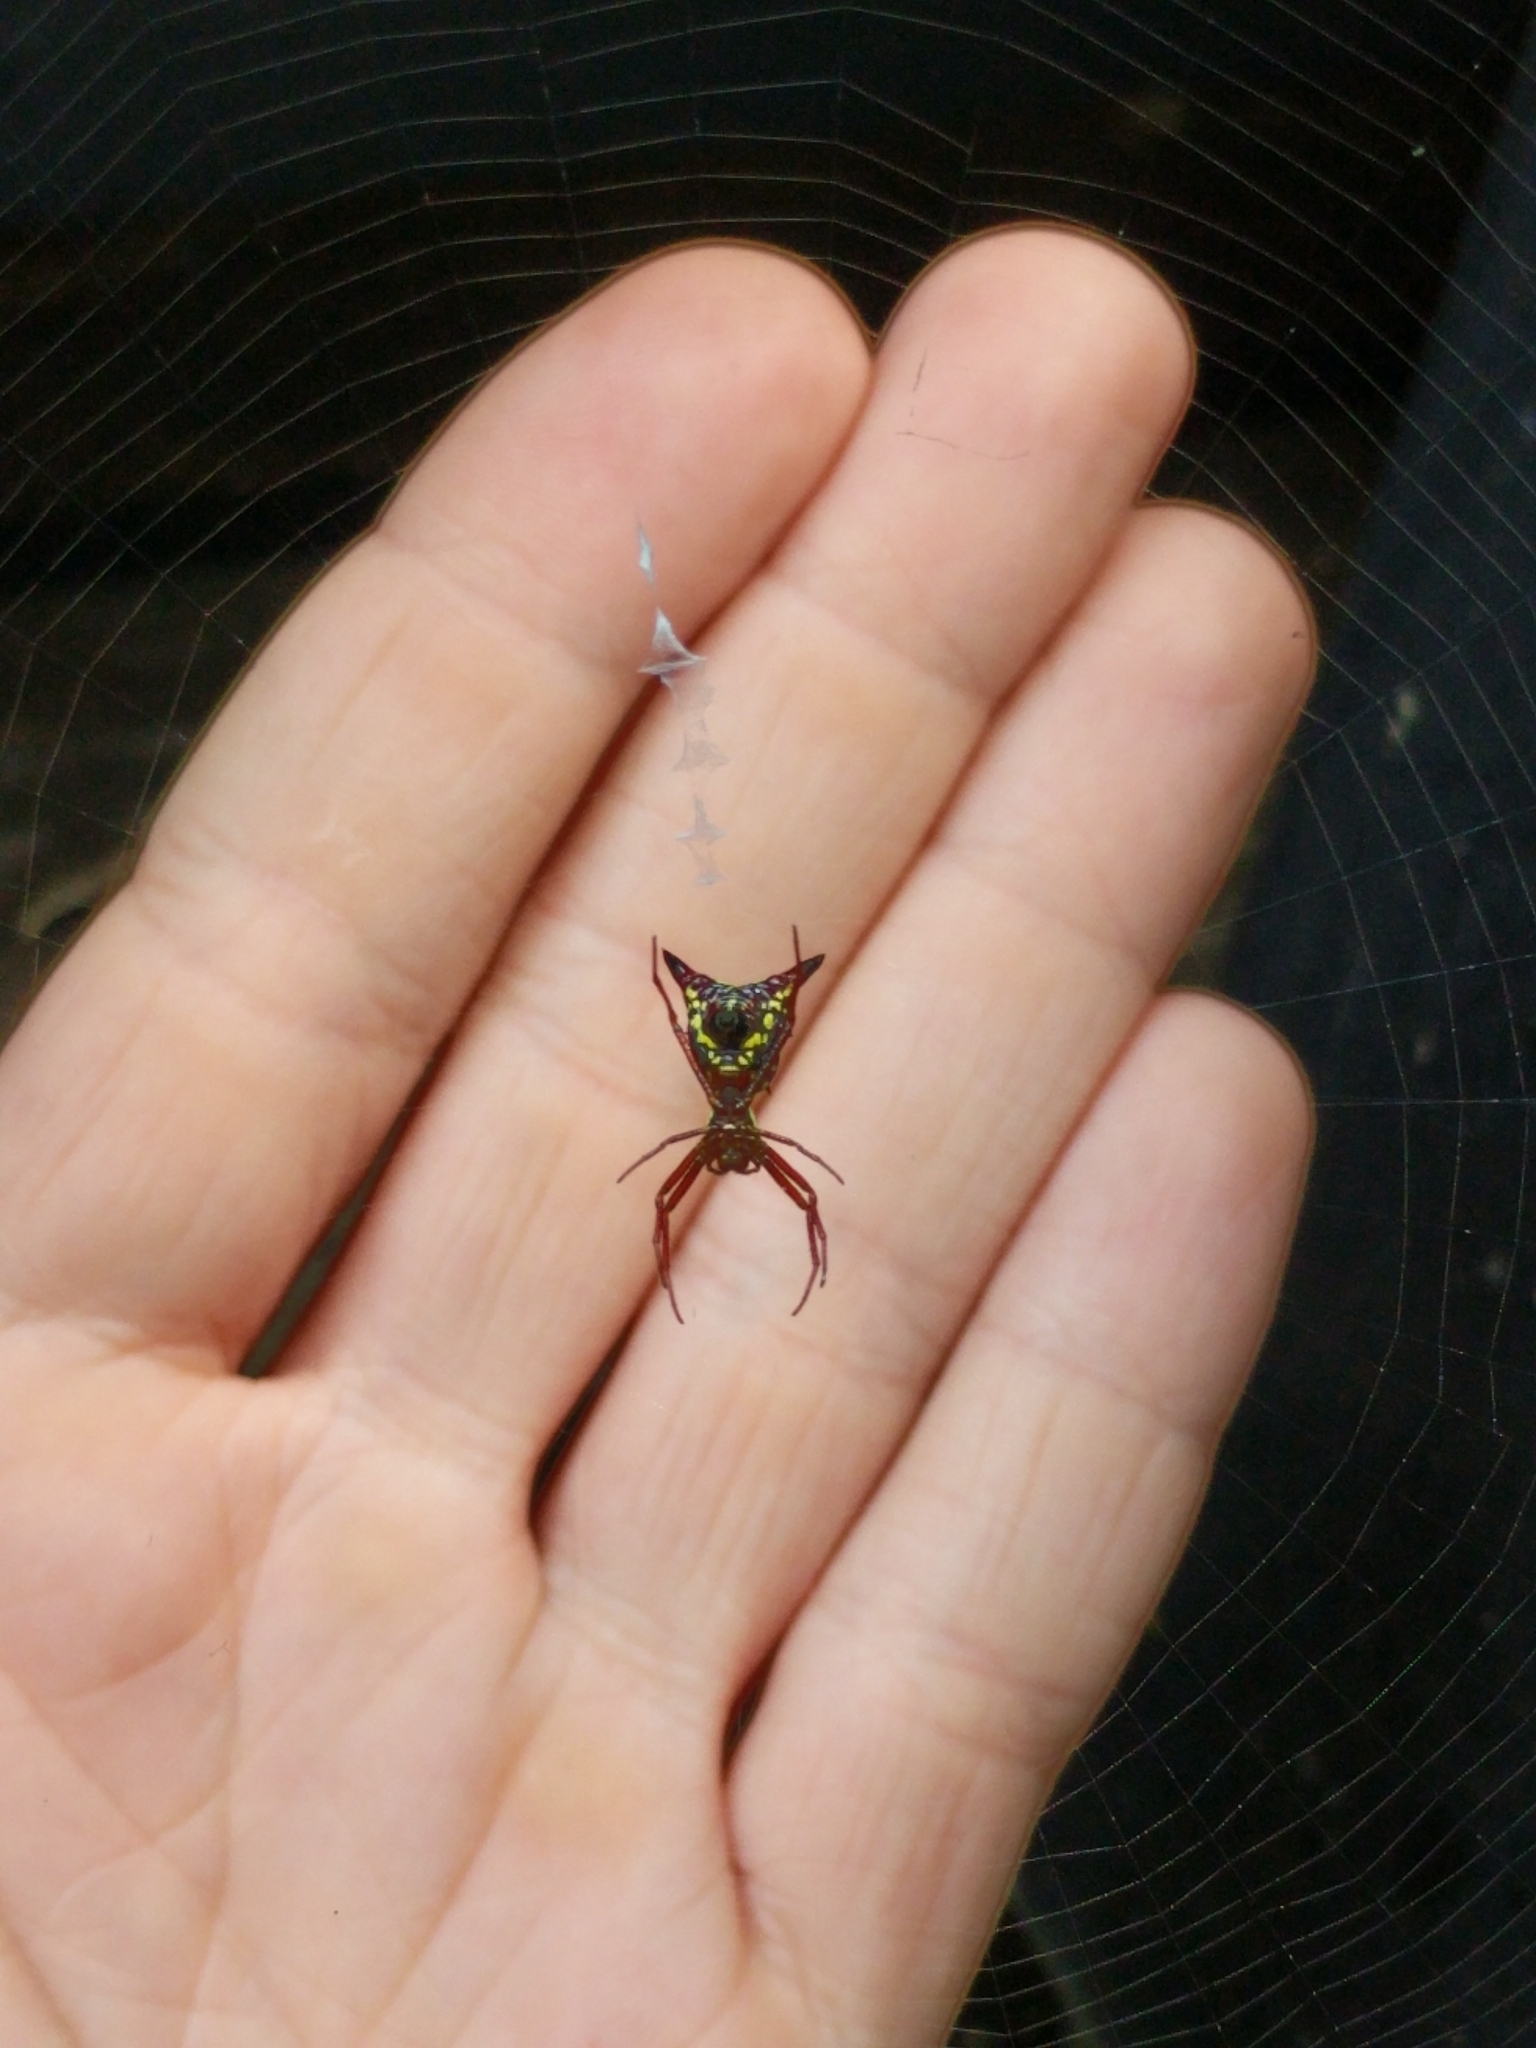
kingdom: Animalia
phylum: Arthropoda
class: Arachnida
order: Araneae
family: Araneidae
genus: Micrathena
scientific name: Micrathena sagittata
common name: Orb weavers
